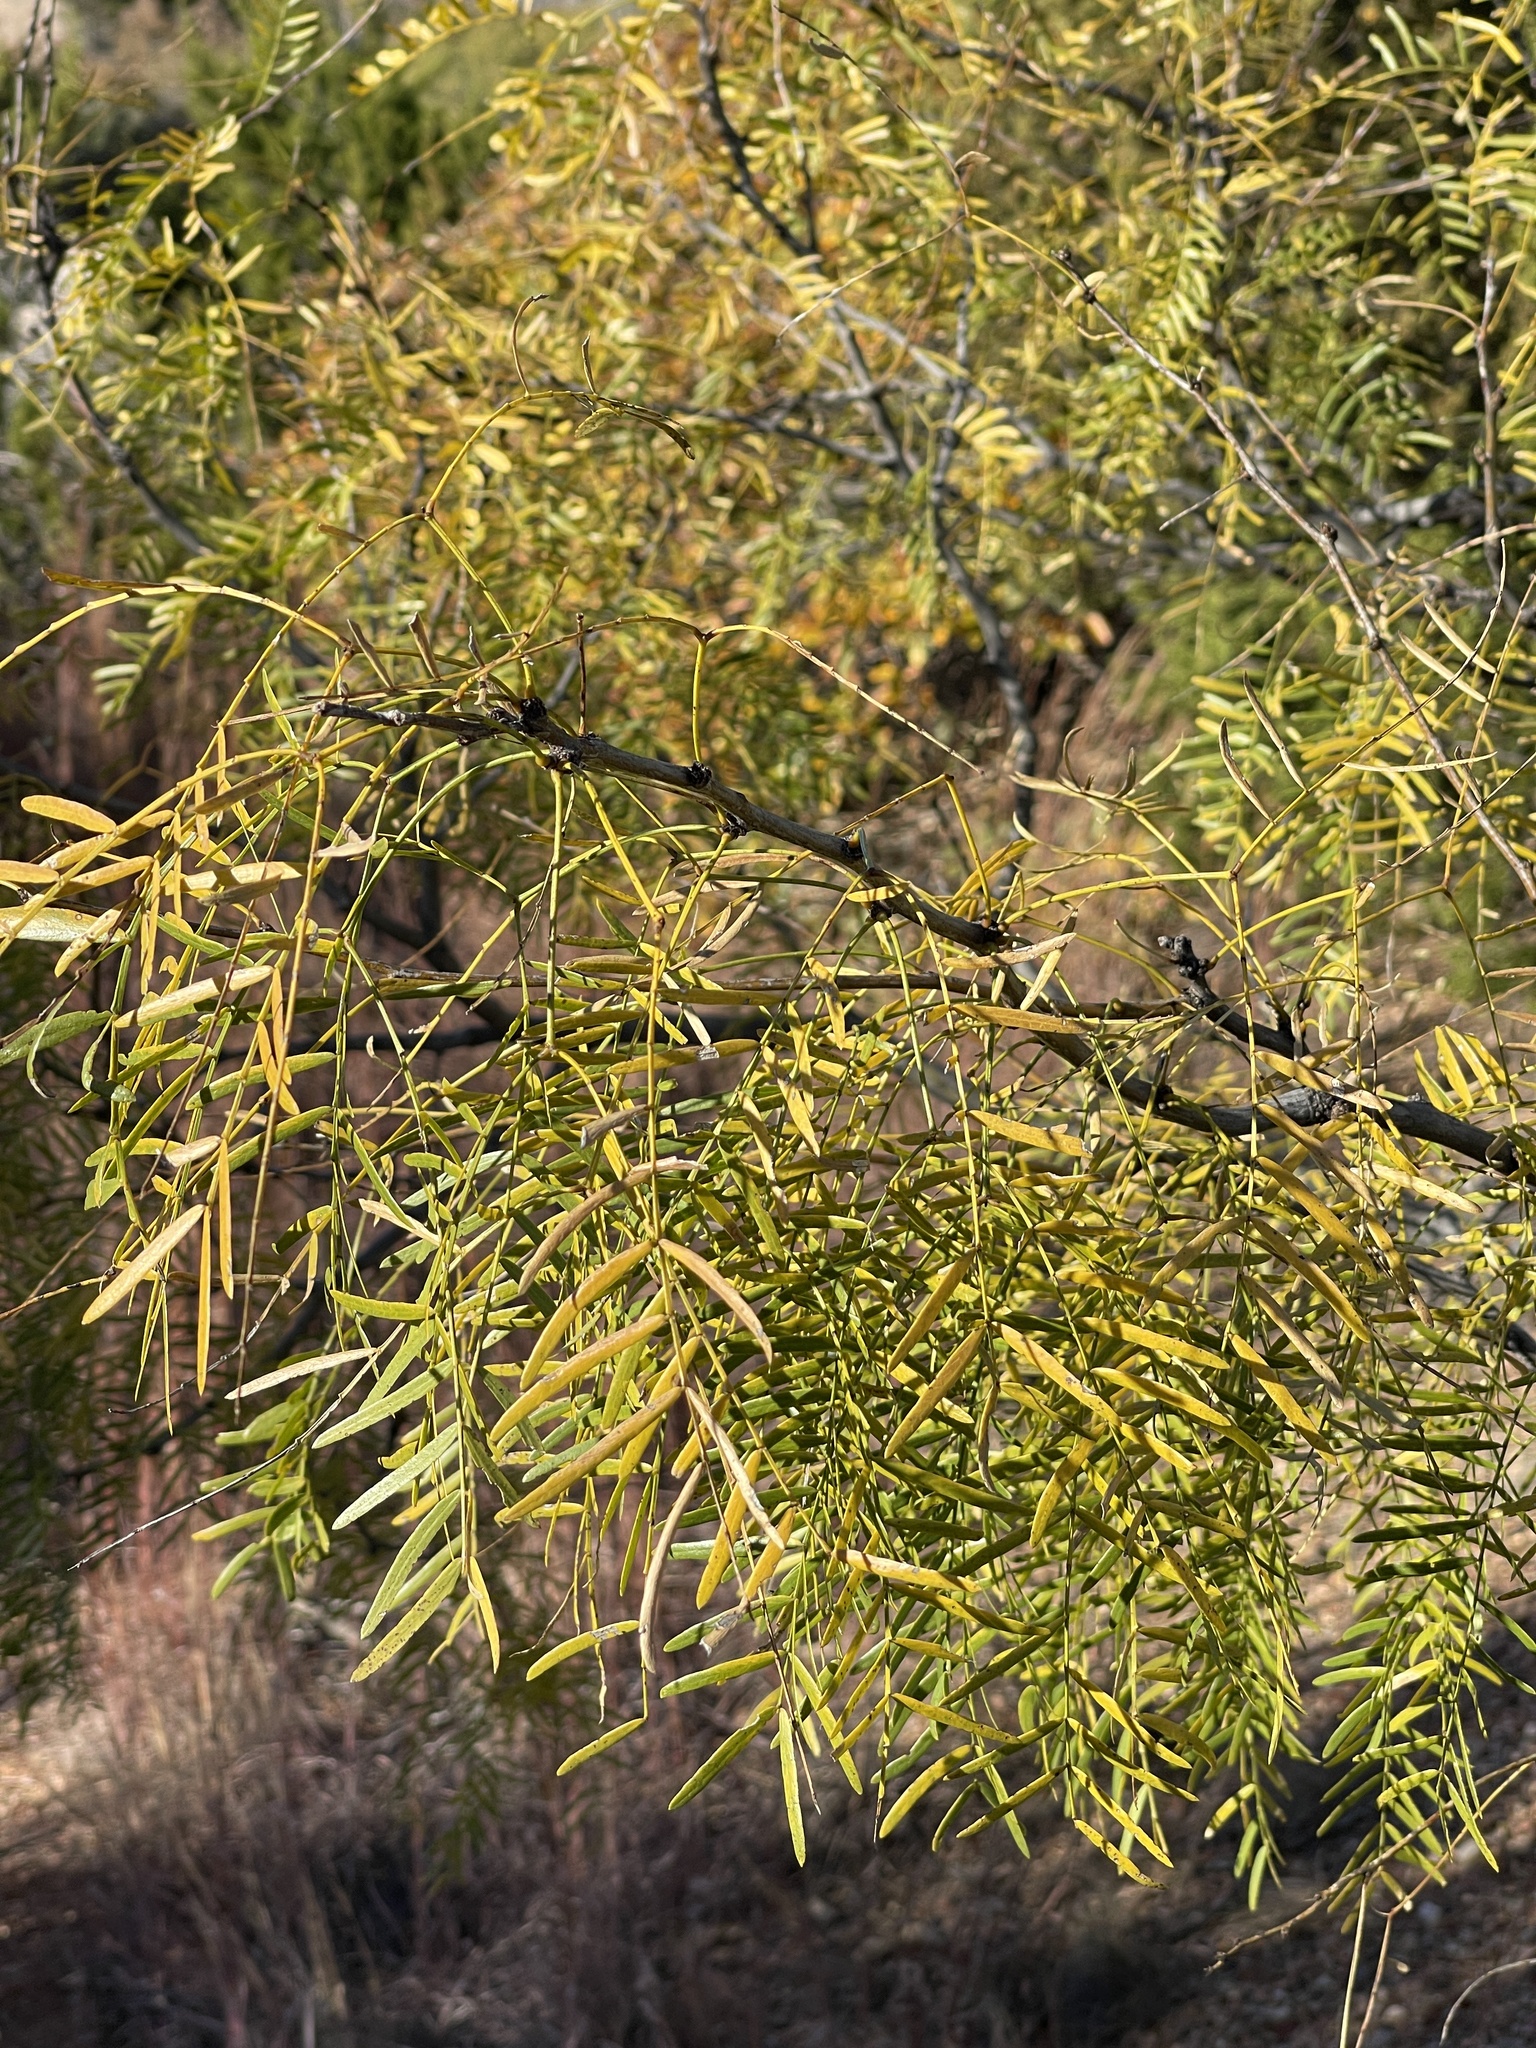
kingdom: Plantae
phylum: Tracheophyta
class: Magnoliopsida
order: Fabales
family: Fabaceae
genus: Prosopis
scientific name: Prosopis glandulosa
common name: Honey mesquite
